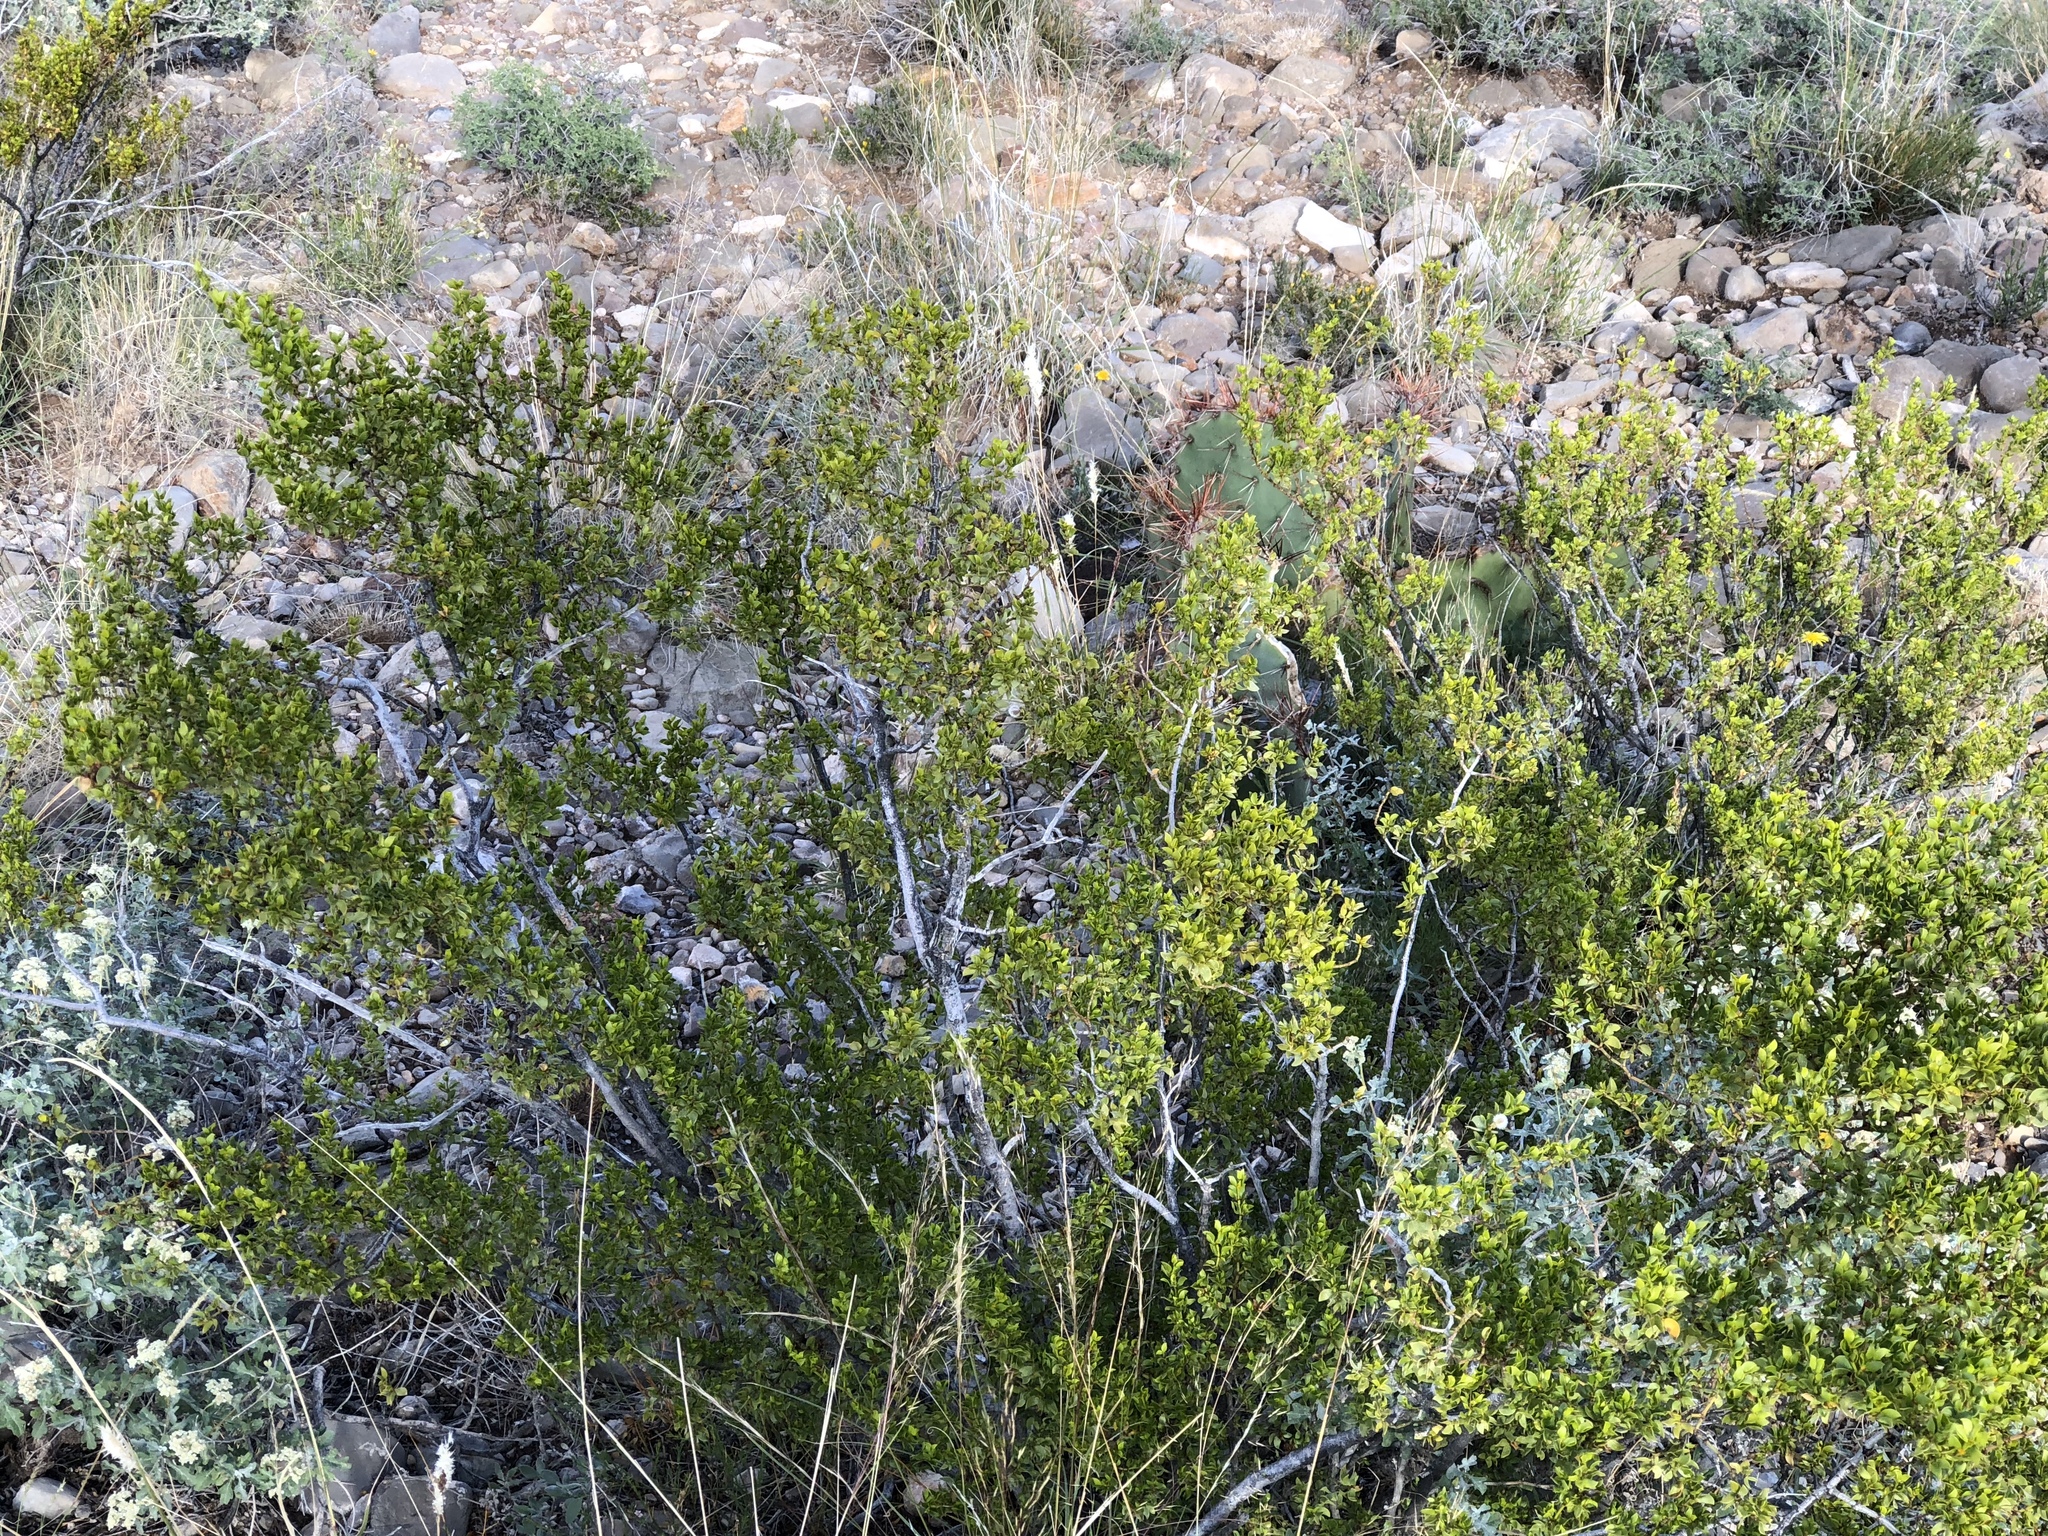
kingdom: Plantae
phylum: Tracheophyta
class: Magnoliopsida
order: Zygophyllales
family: Zygophyllaceae
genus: Larrea
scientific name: Larrea tridentata
